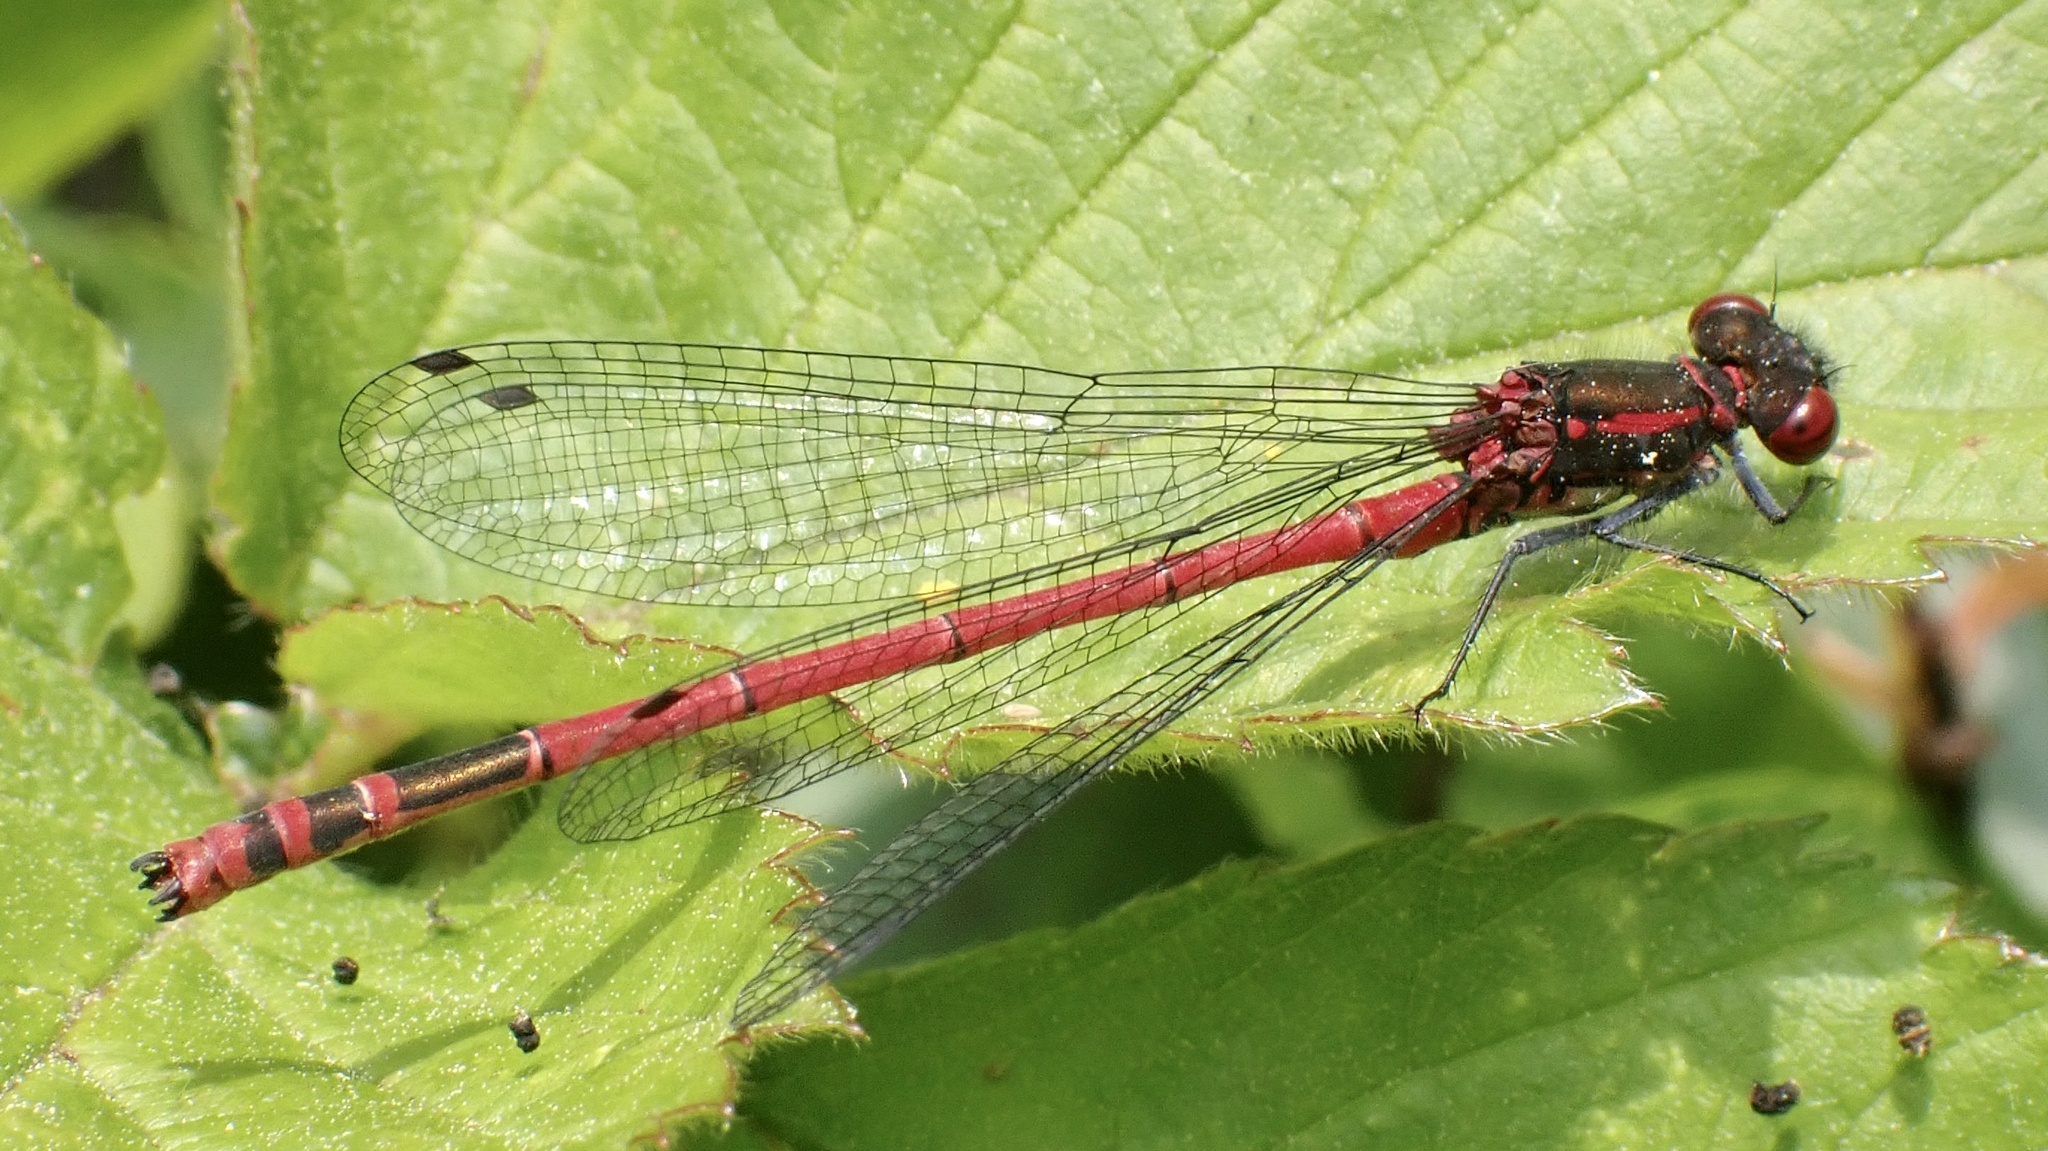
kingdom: Animalia
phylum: Arthropoda
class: Insecta
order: Odonata
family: Coenagrionidae
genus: Pyrrhosoma
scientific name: Pyrrhosoma nymphula
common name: Large red damsel
